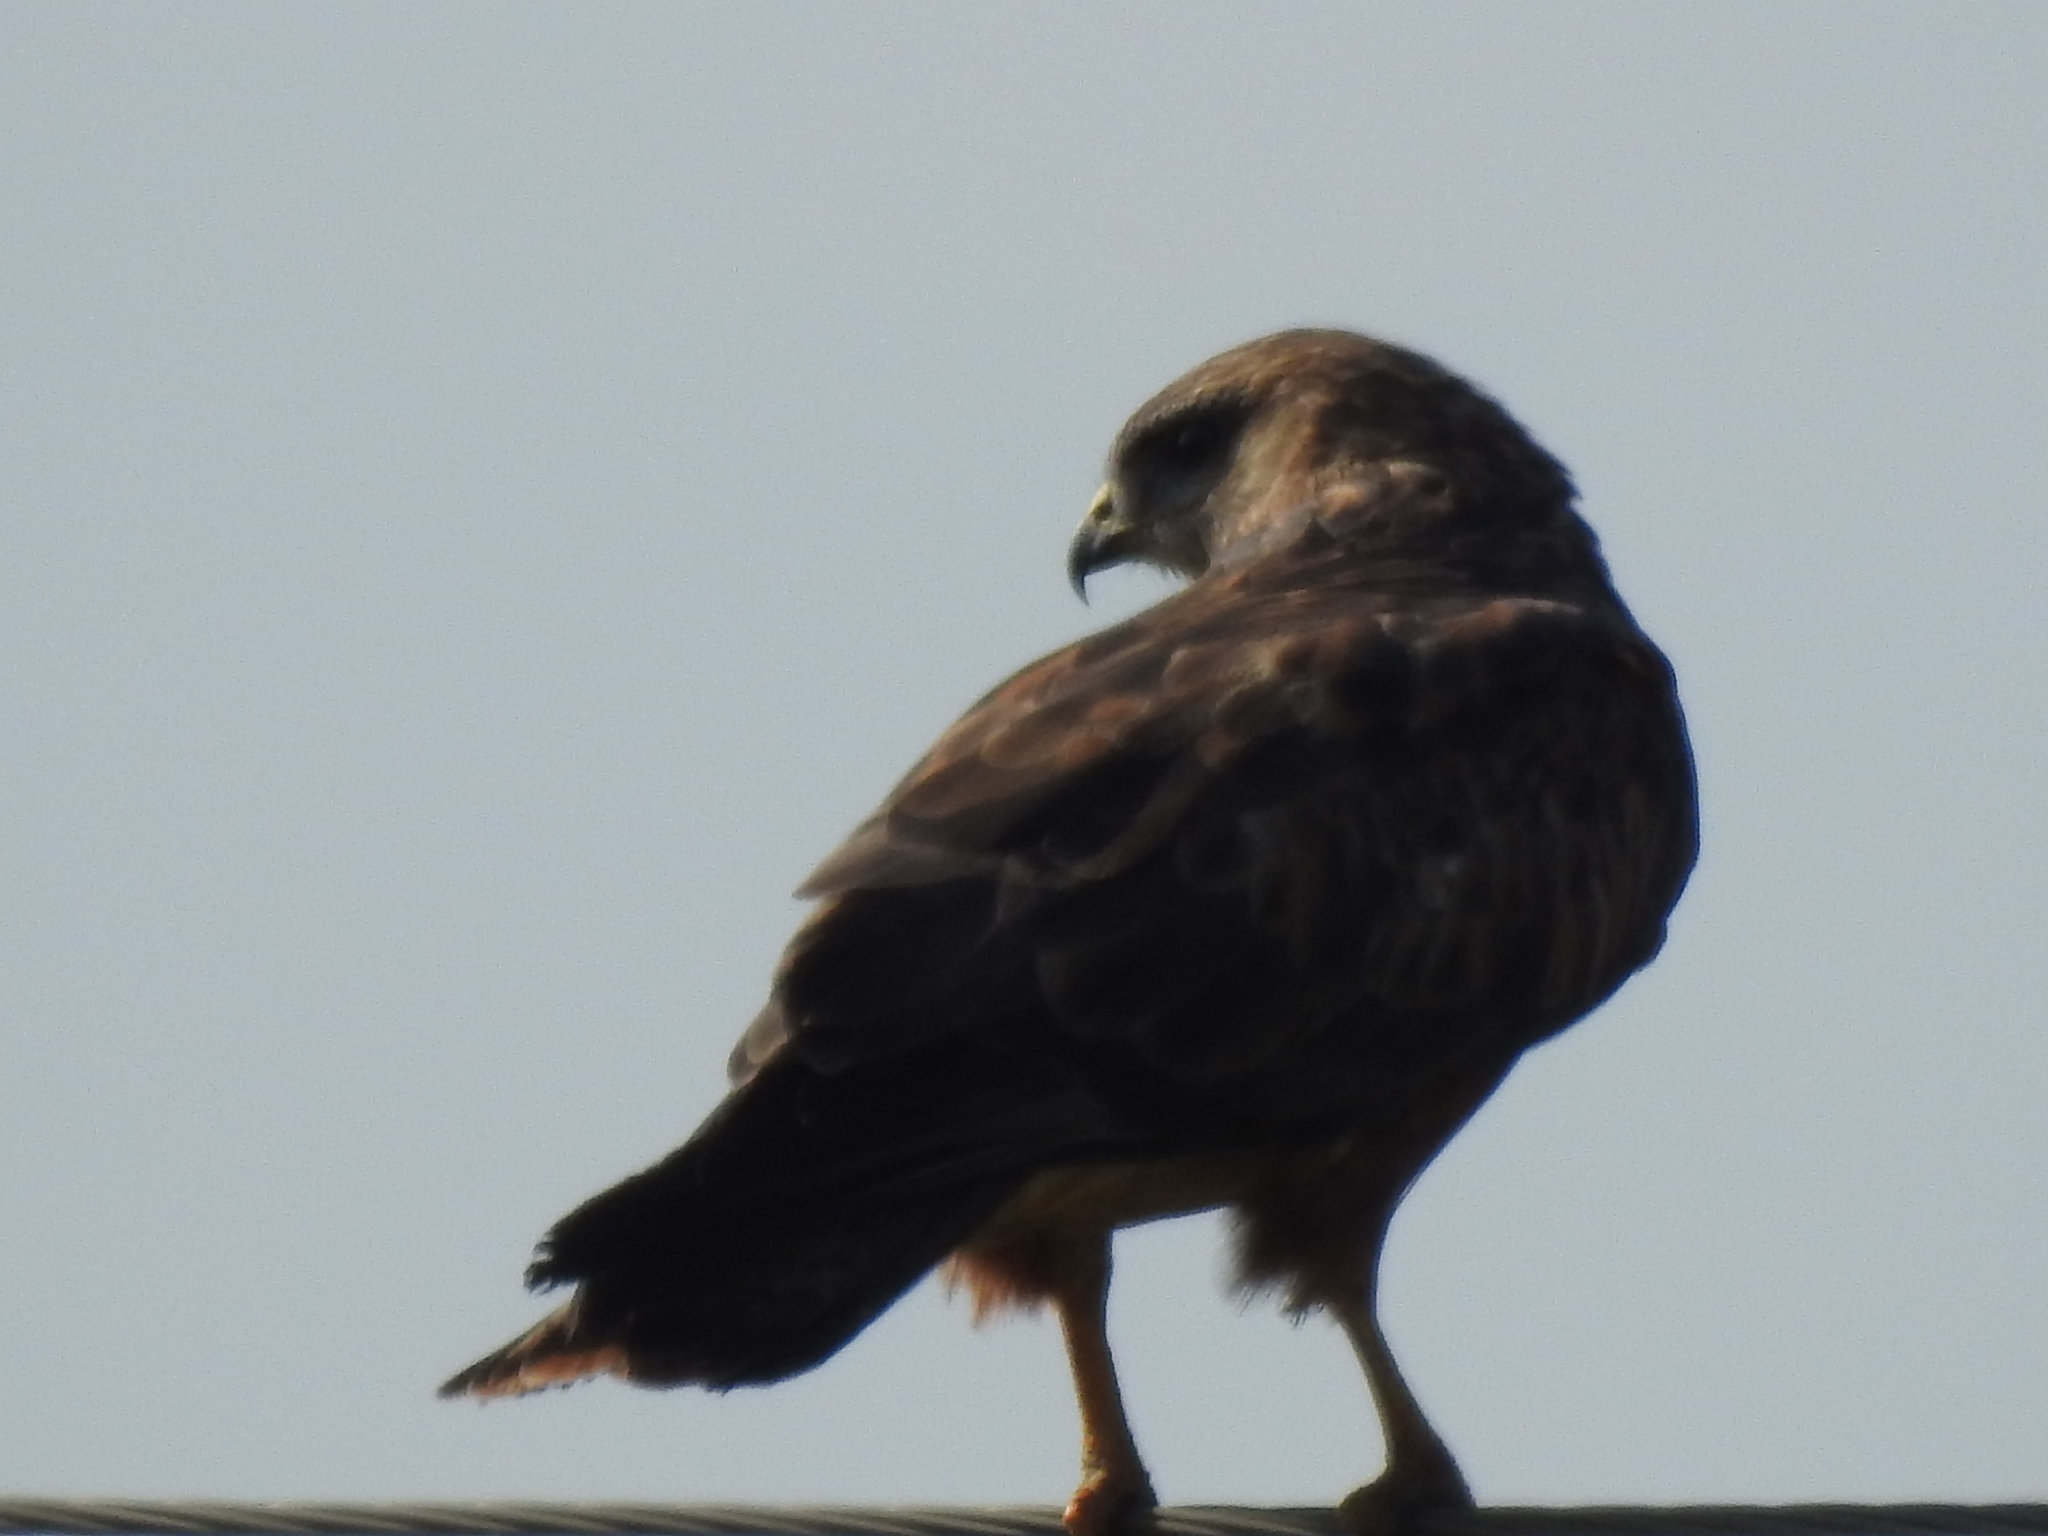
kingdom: Animalia
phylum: Chordata
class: Aves
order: Accipitriformes
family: Accipitridae
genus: Buteo
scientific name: Buteo buteo
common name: Common buzzard
